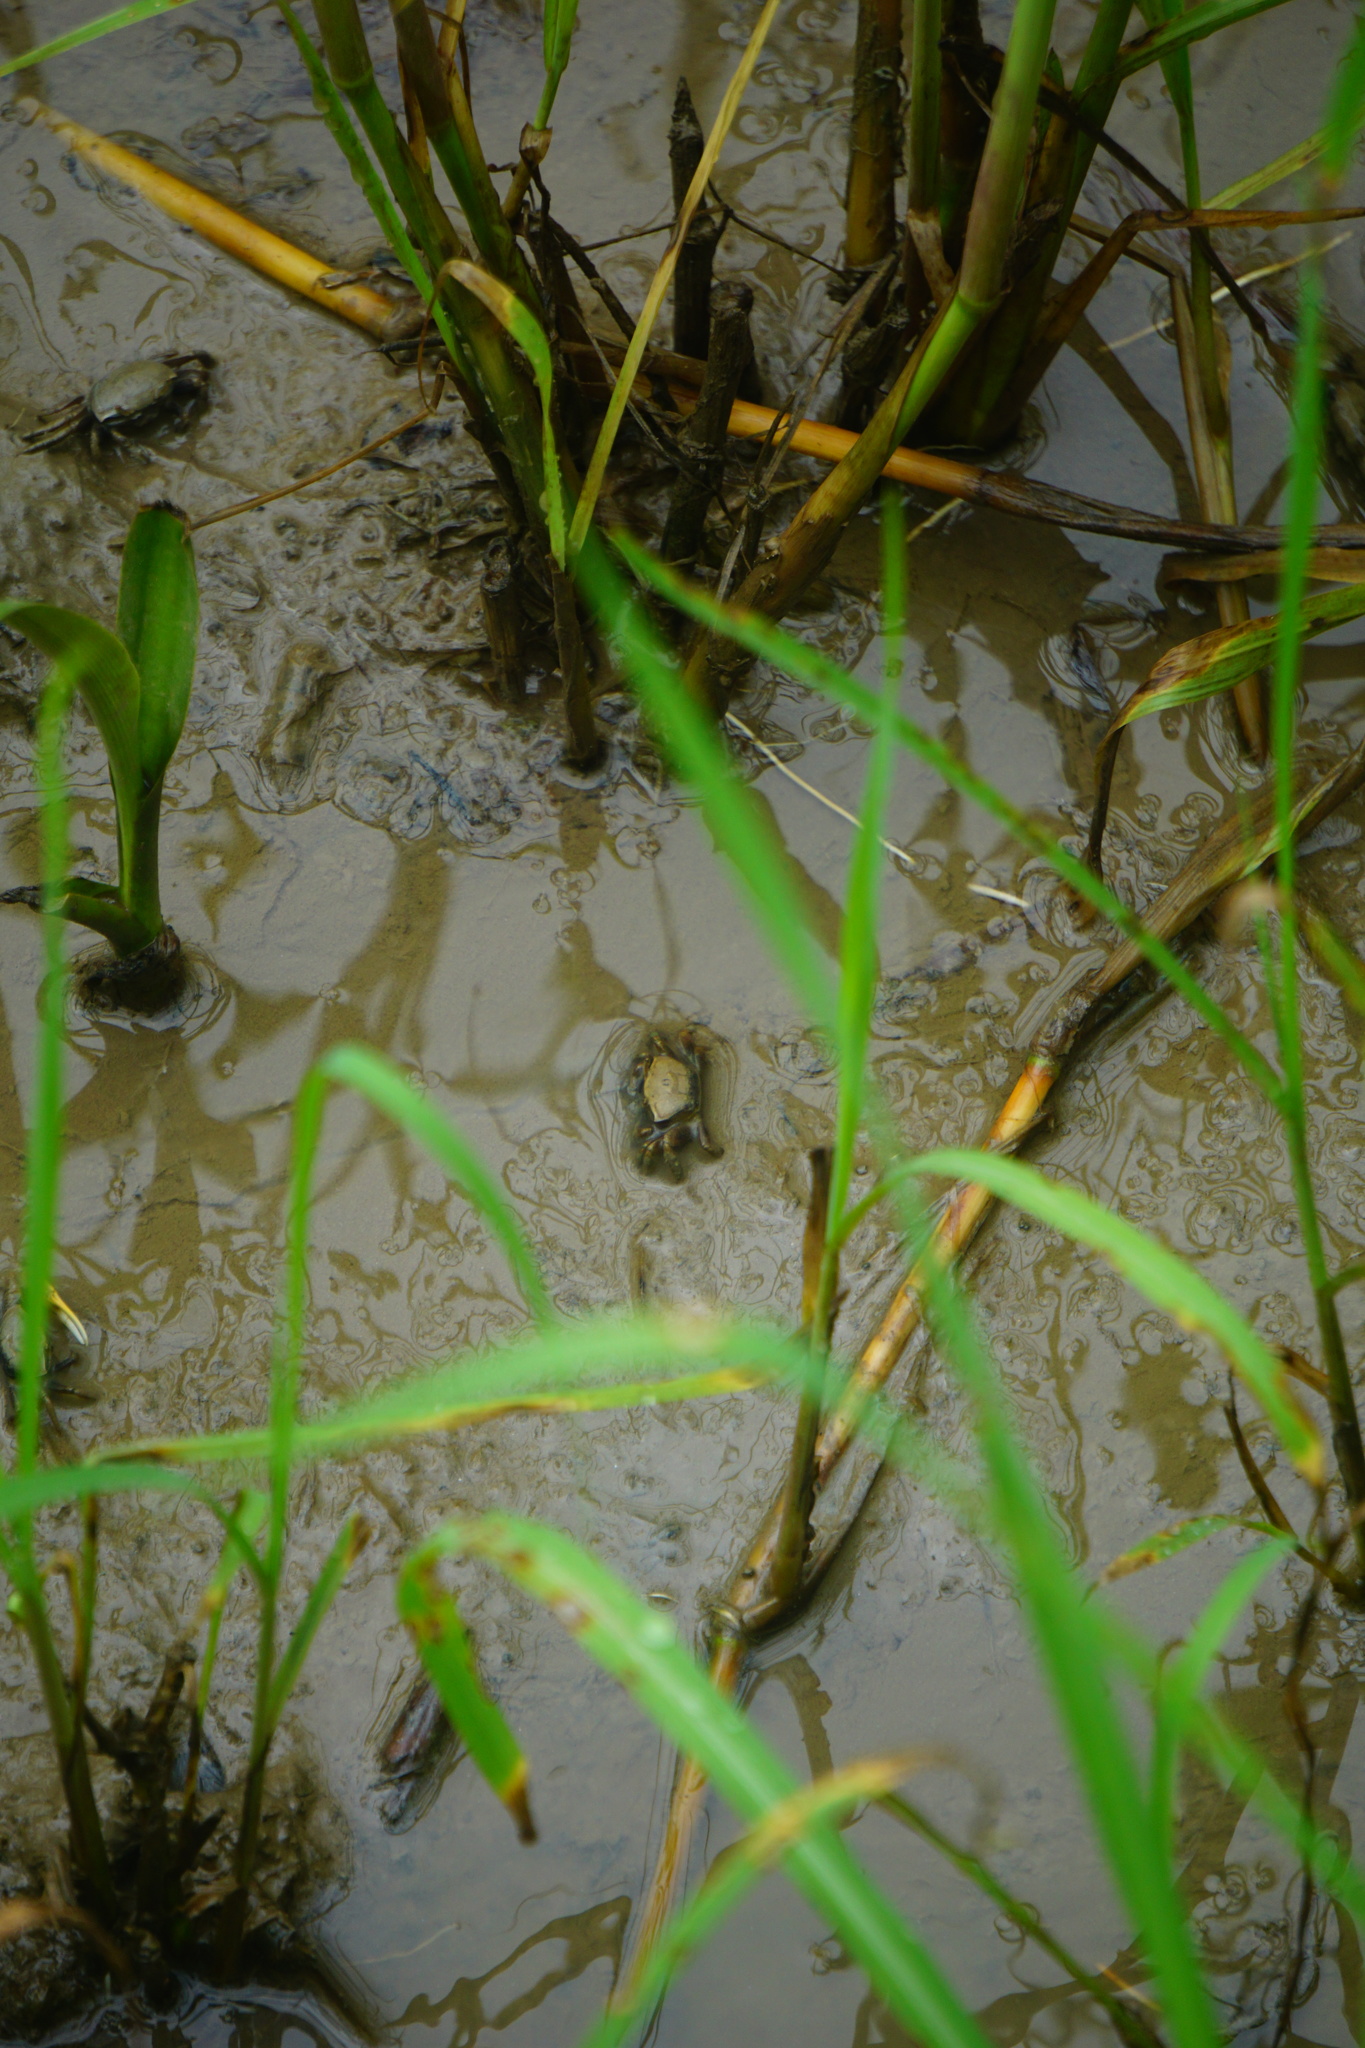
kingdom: Animalia
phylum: Arthropoda
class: Malacostraca
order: Decapoda
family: Ocypodidae
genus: Minuca
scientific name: Minuca rapax
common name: Rapacious fiddler crab
